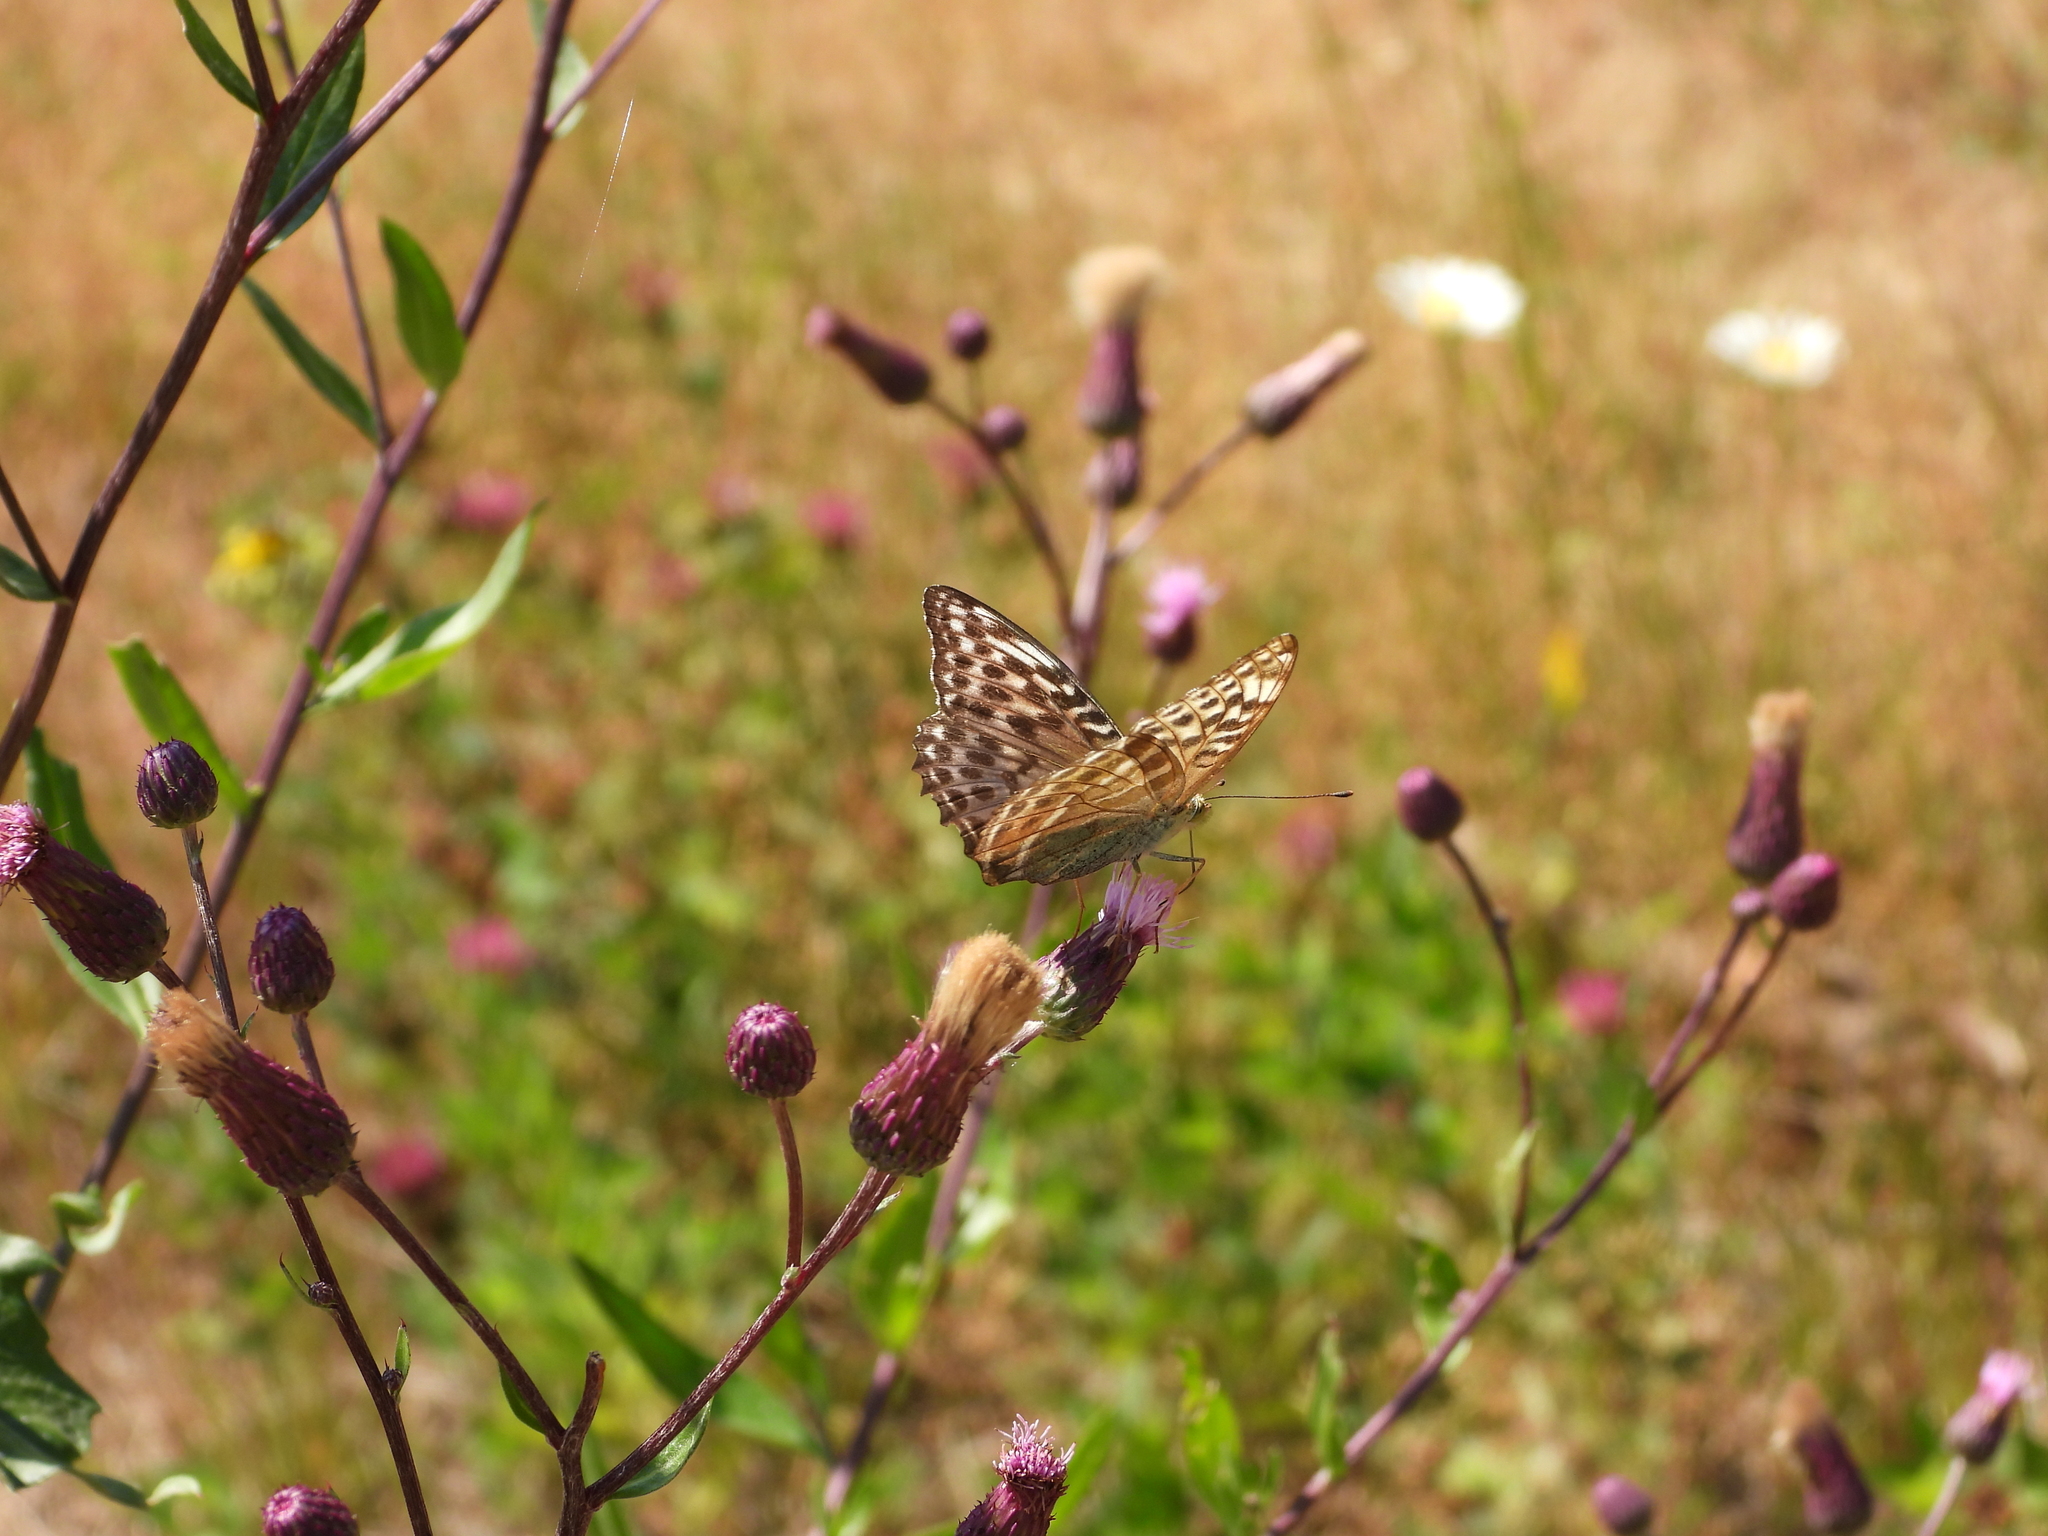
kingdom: Animalia
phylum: Arthropoda
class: Insecta
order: Lepidoptera
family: Nymphalidae
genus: Argynnis
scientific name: Argynnis paphia
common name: Silver-washed fritillary
